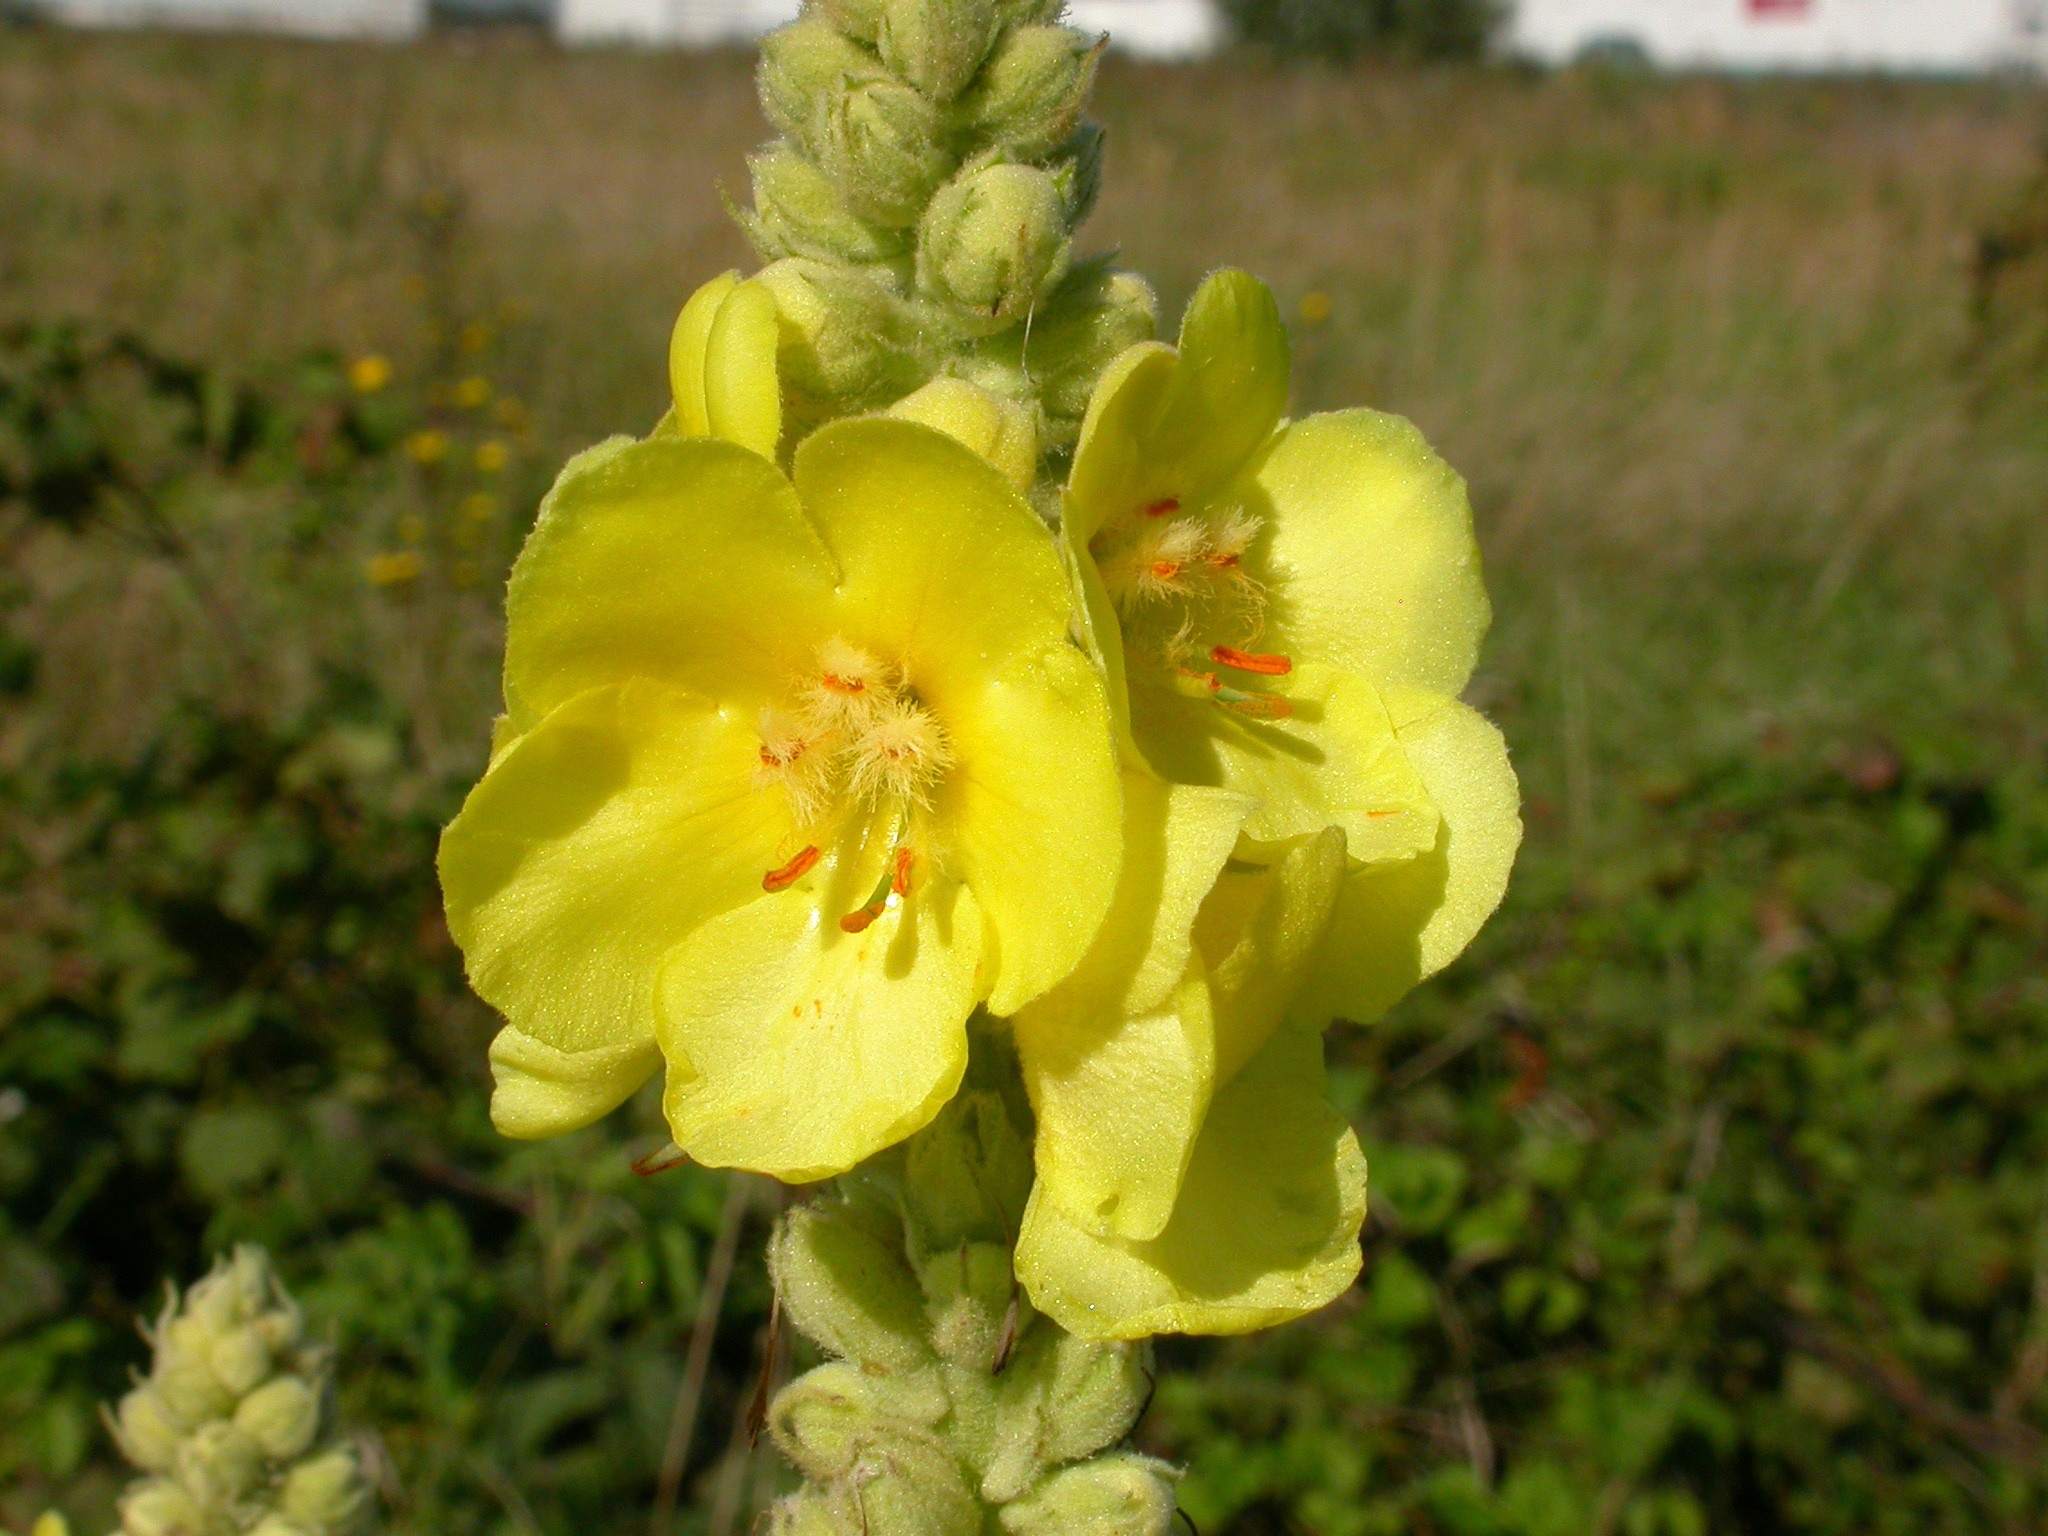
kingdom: Plantae
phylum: Tracheophyta
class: Magnoliopsida
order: Lamiales
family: Scrophulariaceae
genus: Verbascum
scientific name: Verbascum thapsus
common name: Common mullein
